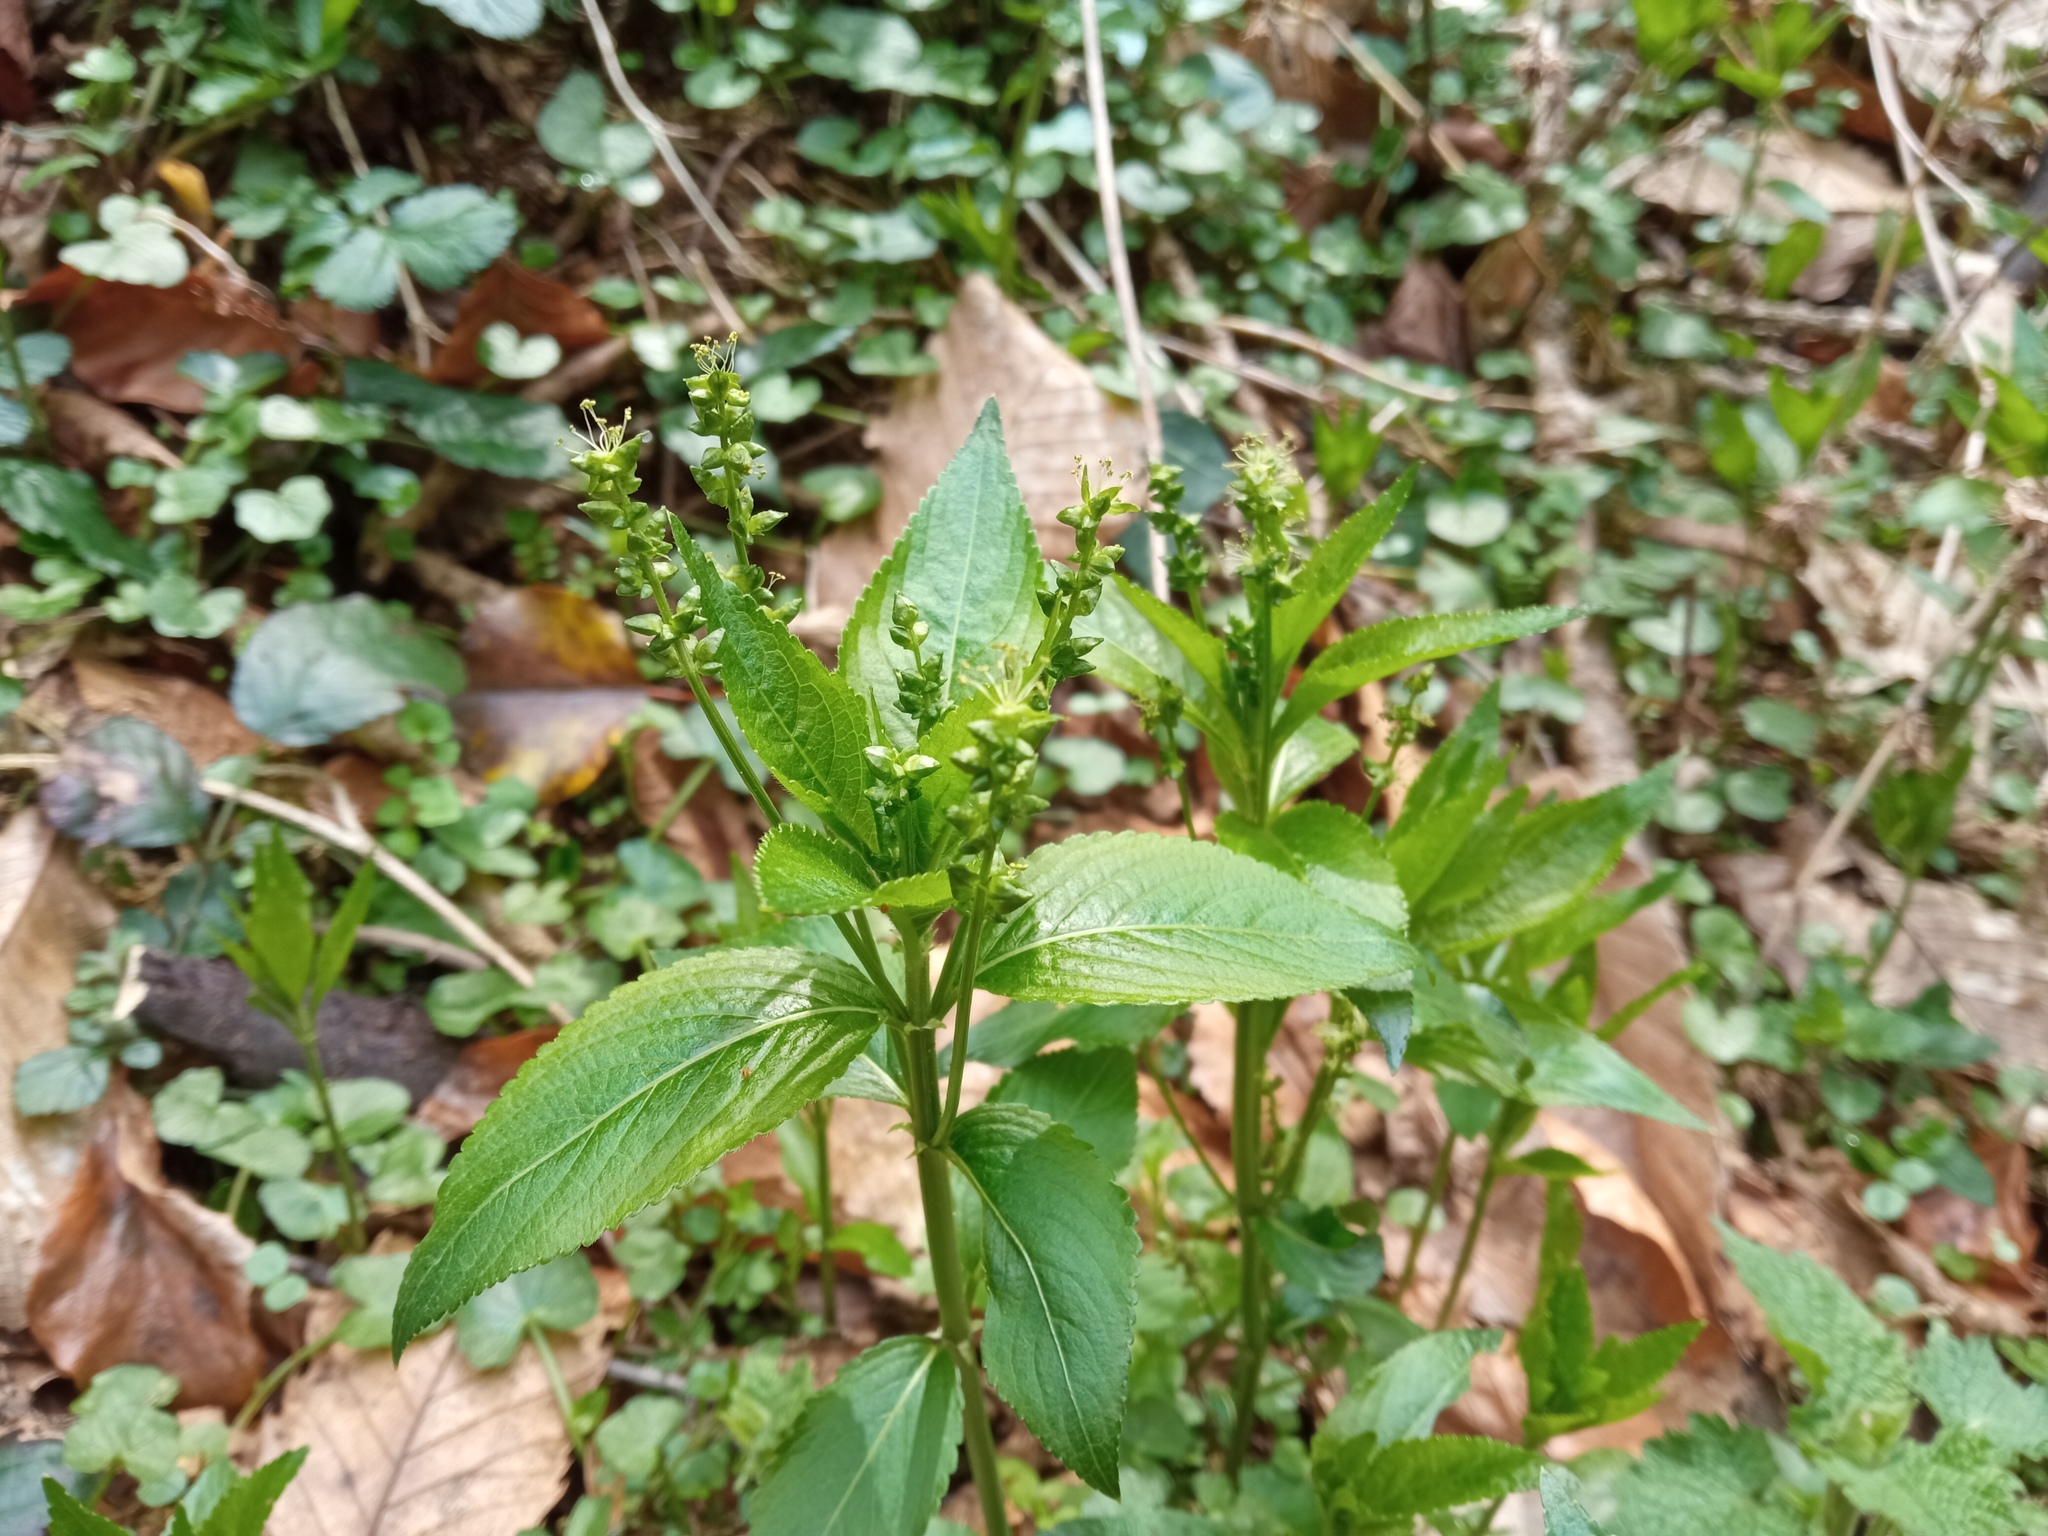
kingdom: Plantae
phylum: Tracheophyta
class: Magnoliopsida
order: Malpighiales
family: Euphorbiaceae
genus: Mercurialis
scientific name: Mercurialis perennis
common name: Dog mercury
